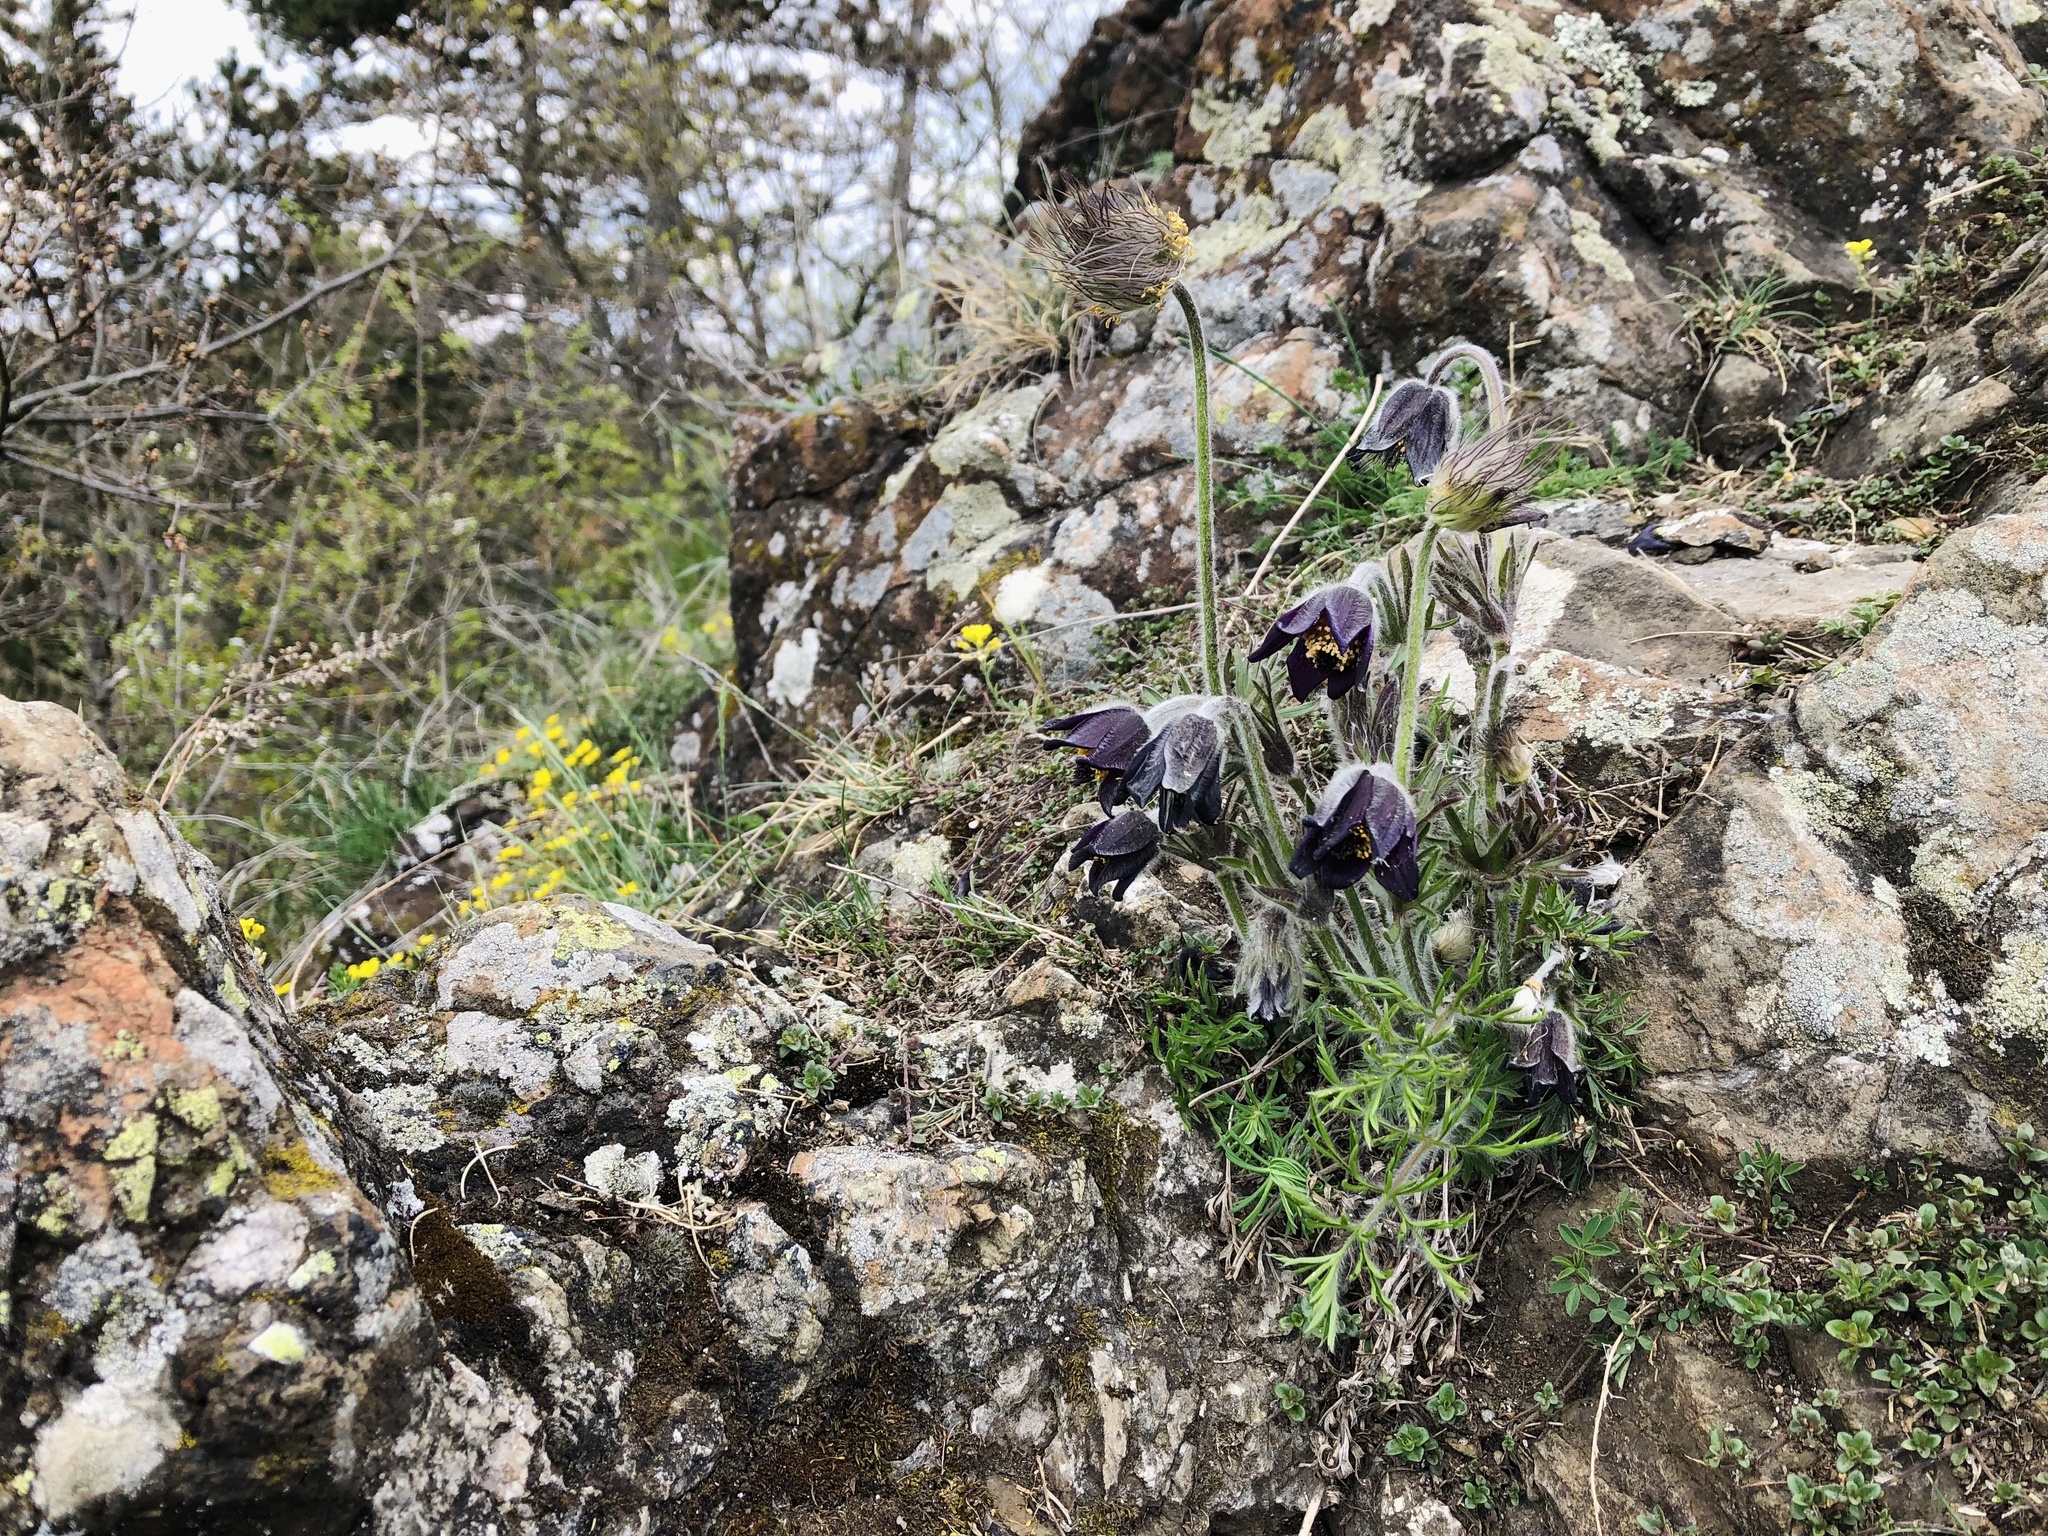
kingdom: Plantae
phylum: Tracheophyta
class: Magnoliopsida
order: Ranunculales
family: Ranunculaceae
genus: Pulsatilla
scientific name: Pulsatilla pratensis
